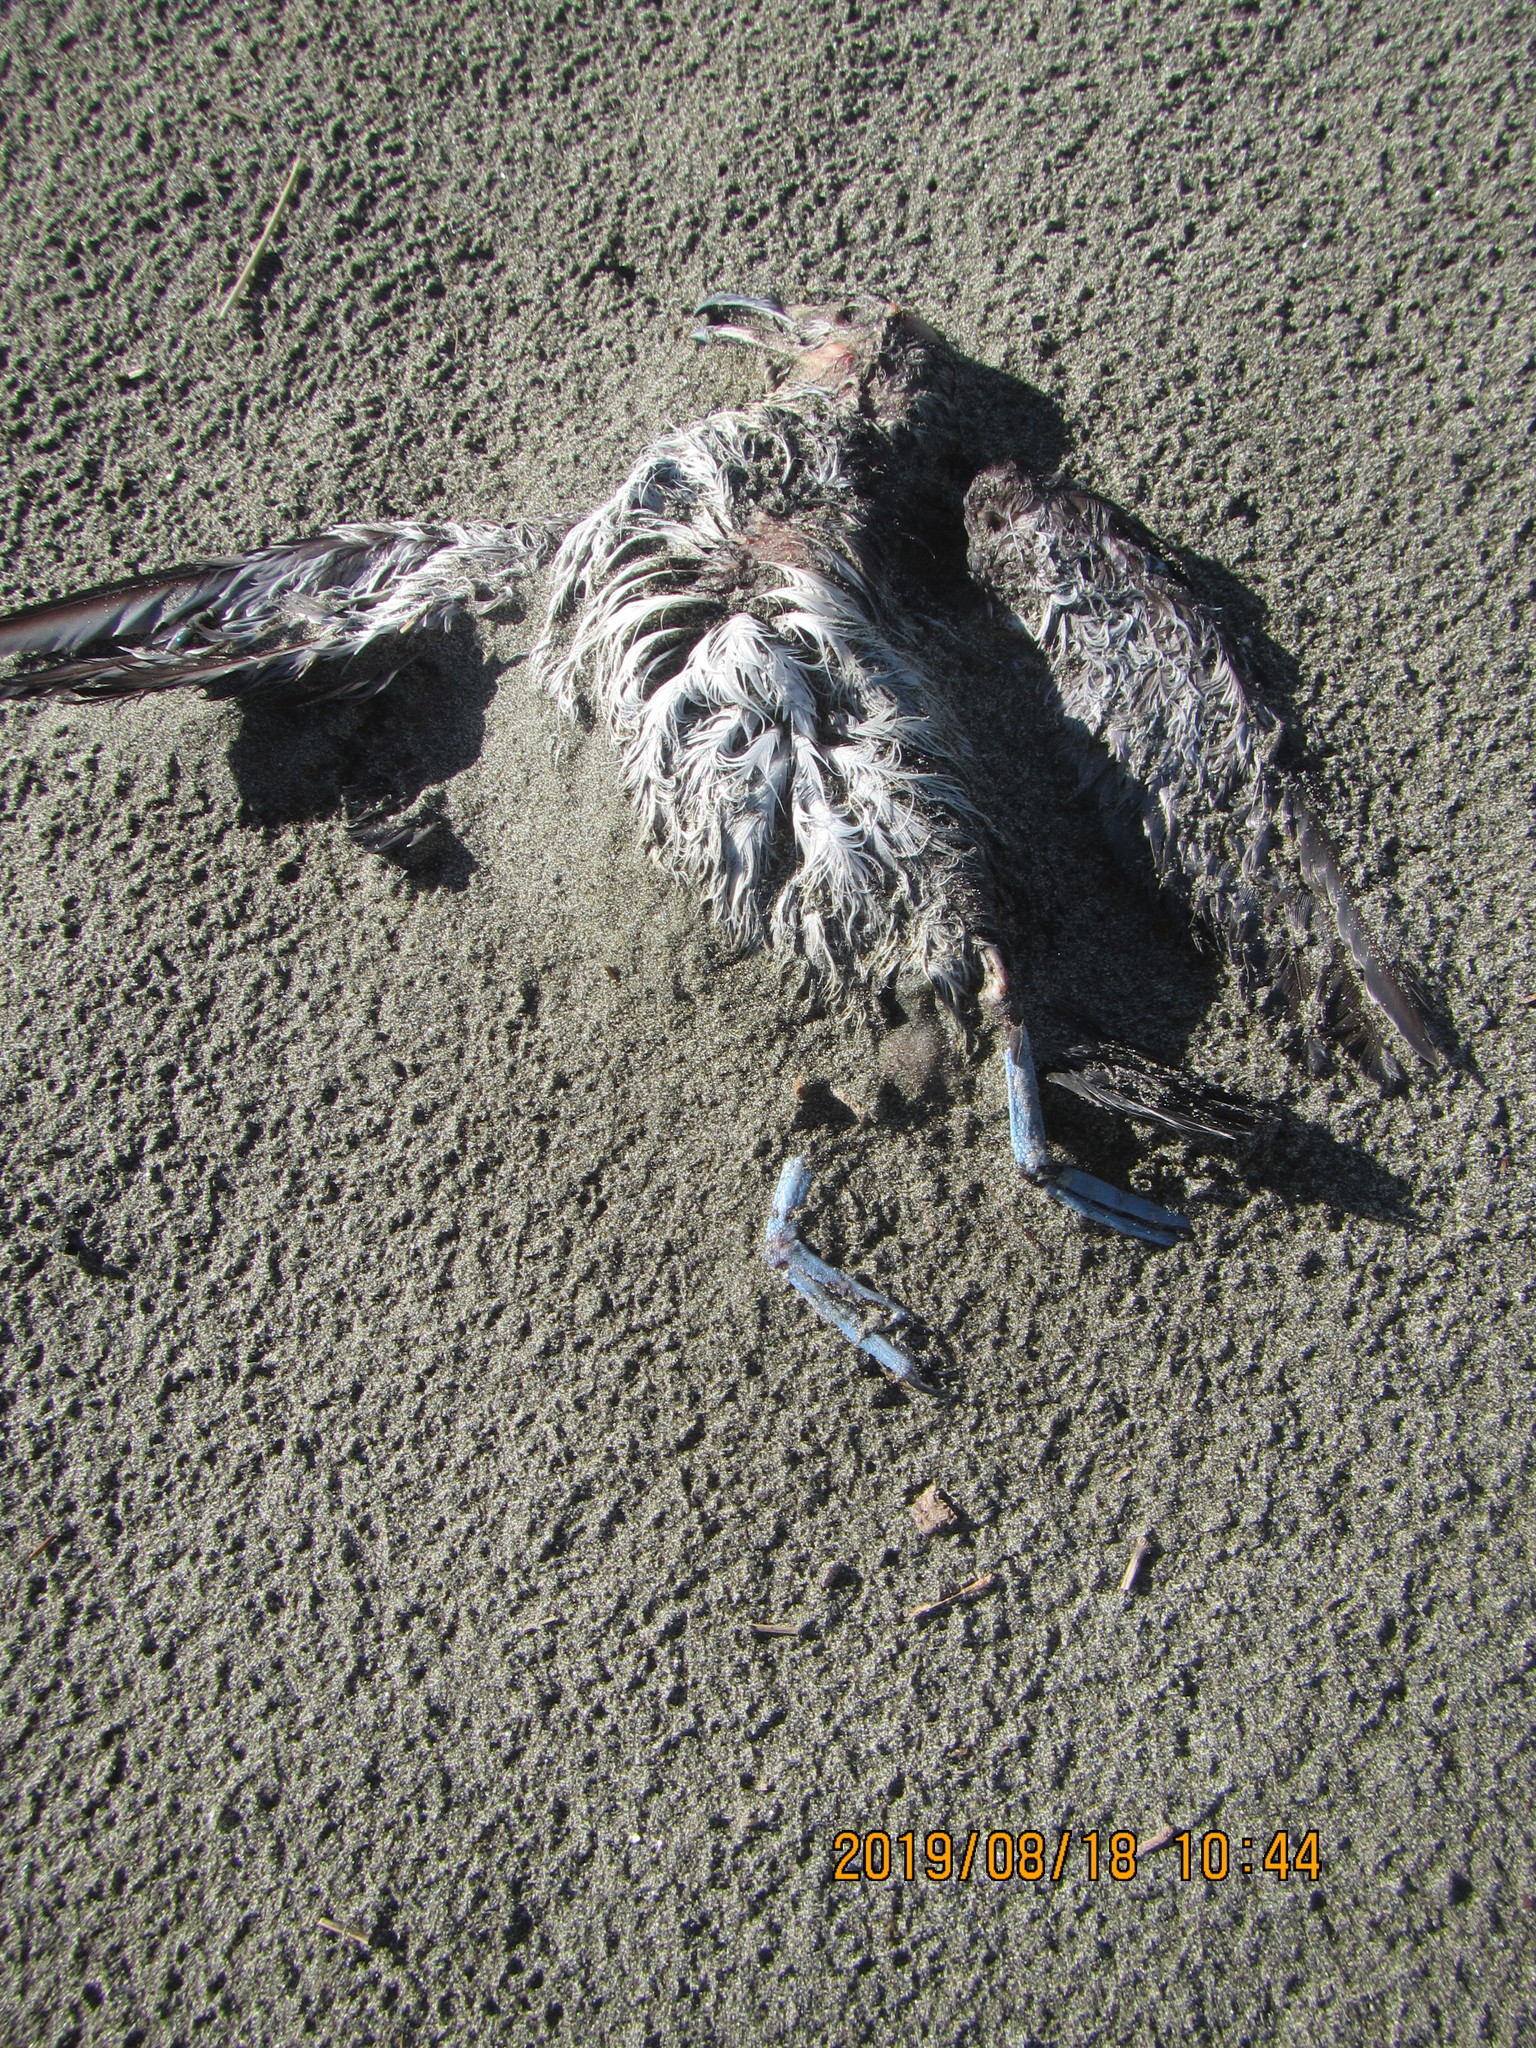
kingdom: Animalia
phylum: Chordata
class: Aves
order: Procellariiformes
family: Procellariidae
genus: Pachyptila
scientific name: Pachyptila turtur
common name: Fairy prion
